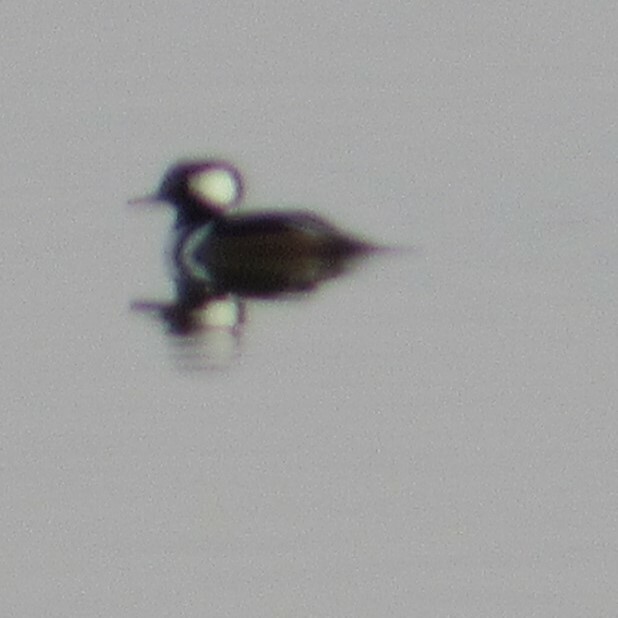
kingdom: Animalia
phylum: Chordata
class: Aves
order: Anseriformes
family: Anatidae
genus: Lophodytes
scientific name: Lophodytes cucullatus
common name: Hooded merganser
